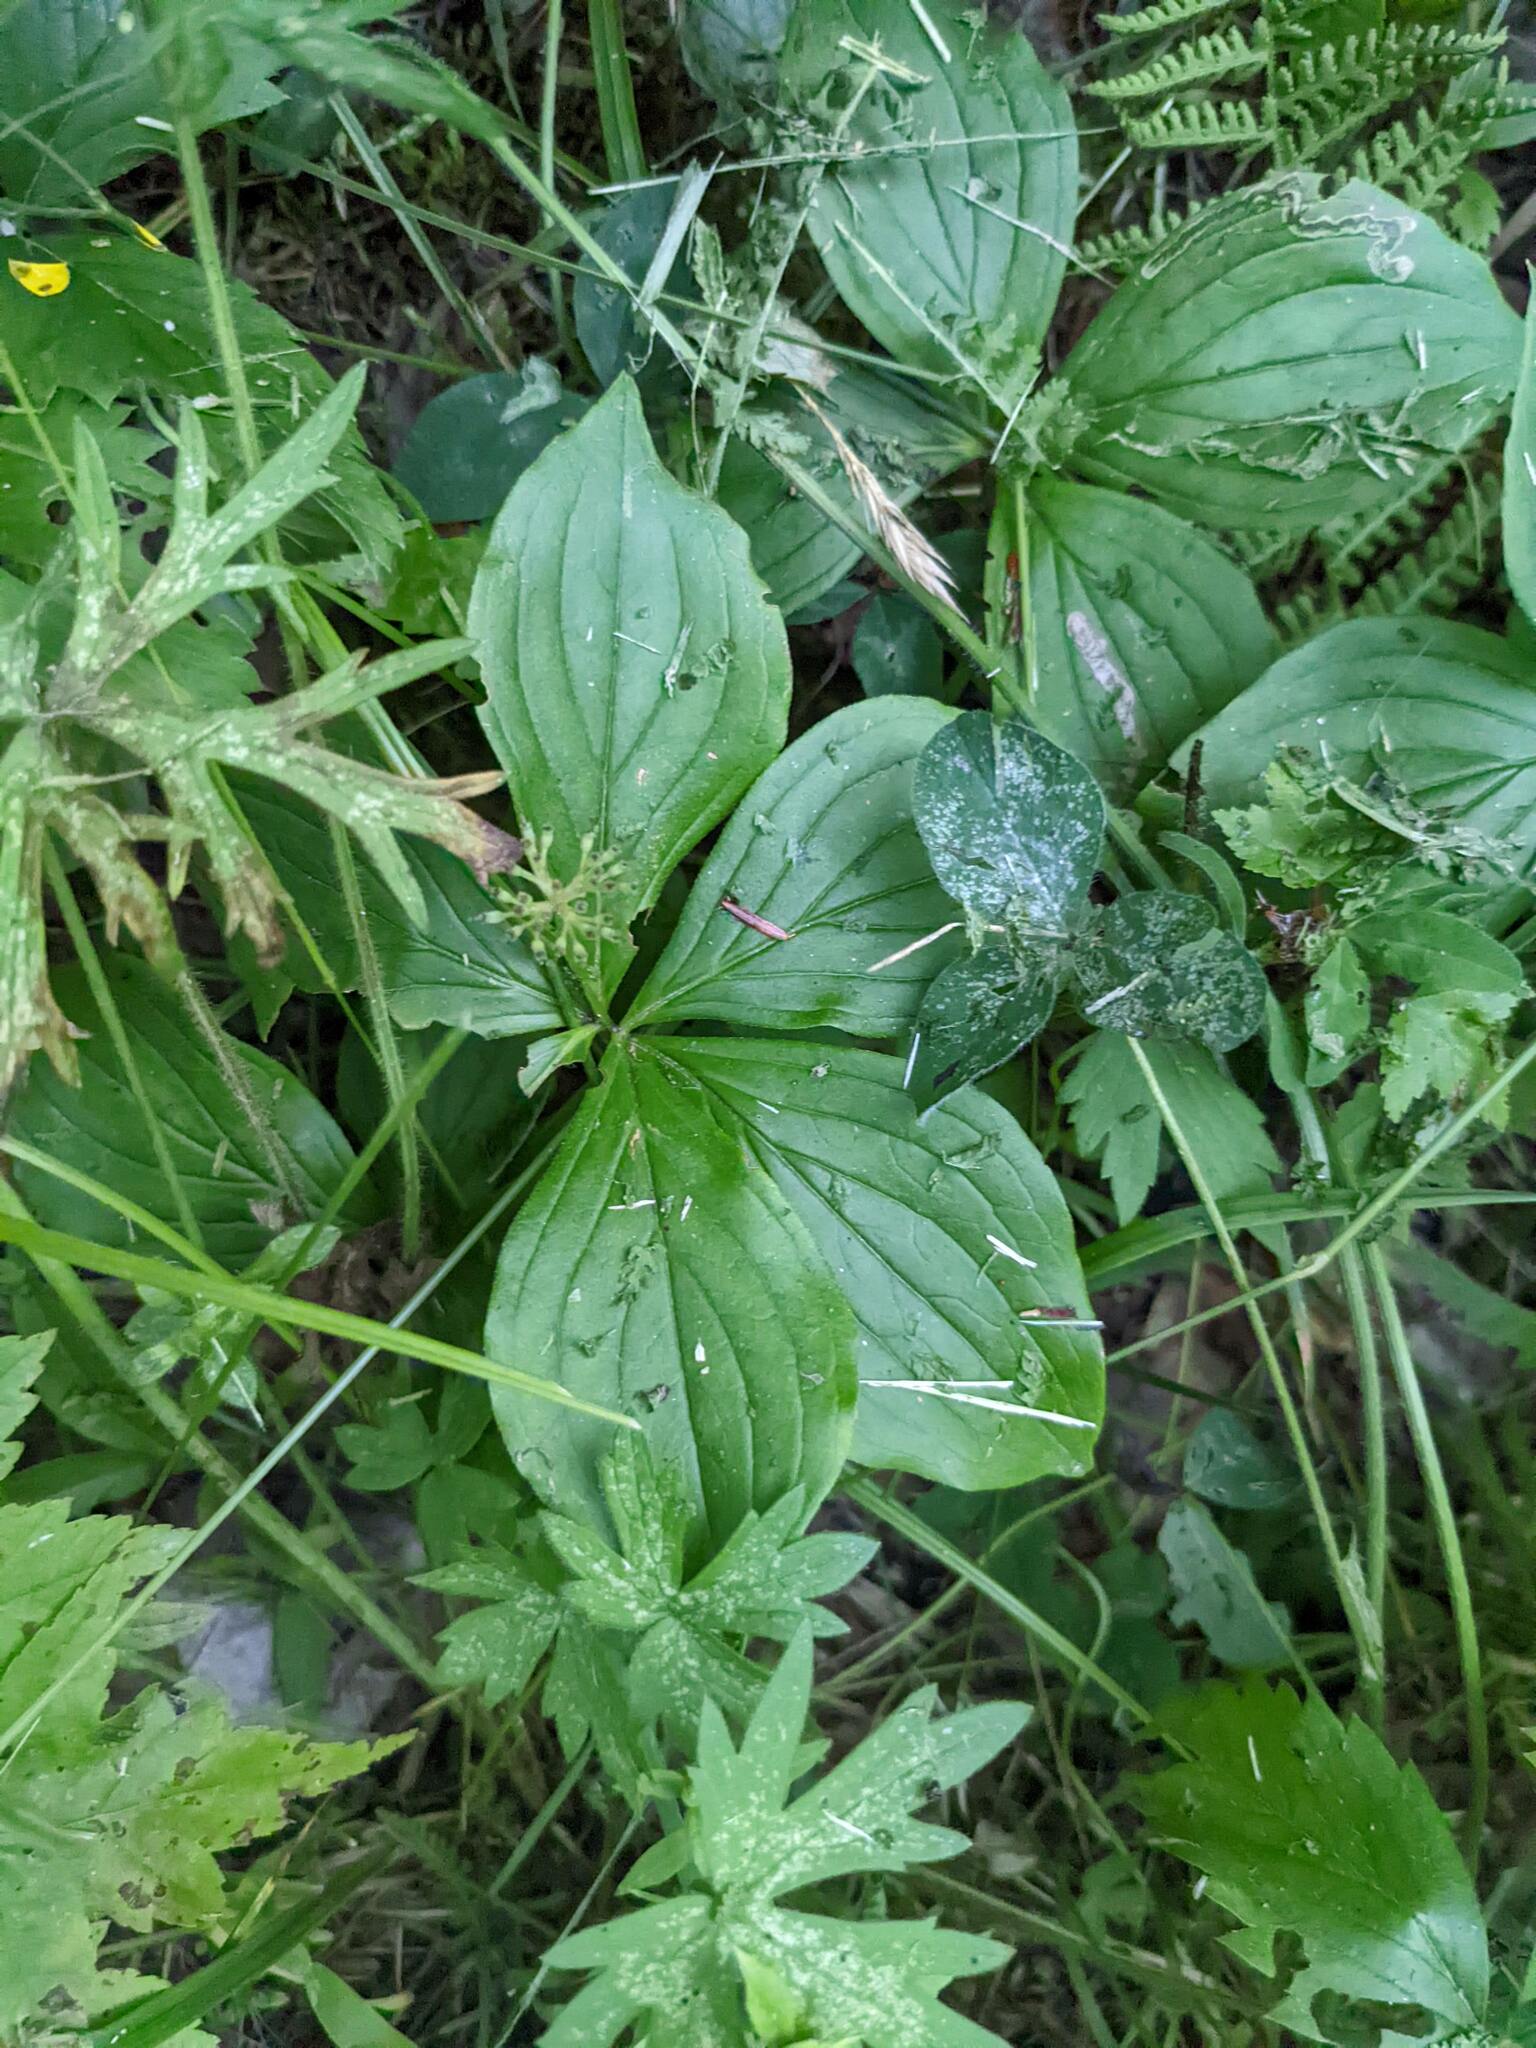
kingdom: Plantae
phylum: Tracheophyta
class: Magnoliopsida
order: Cornales
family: Cornaceae
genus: Cornus
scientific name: Cornus canadensis
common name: Creeping dogwood
